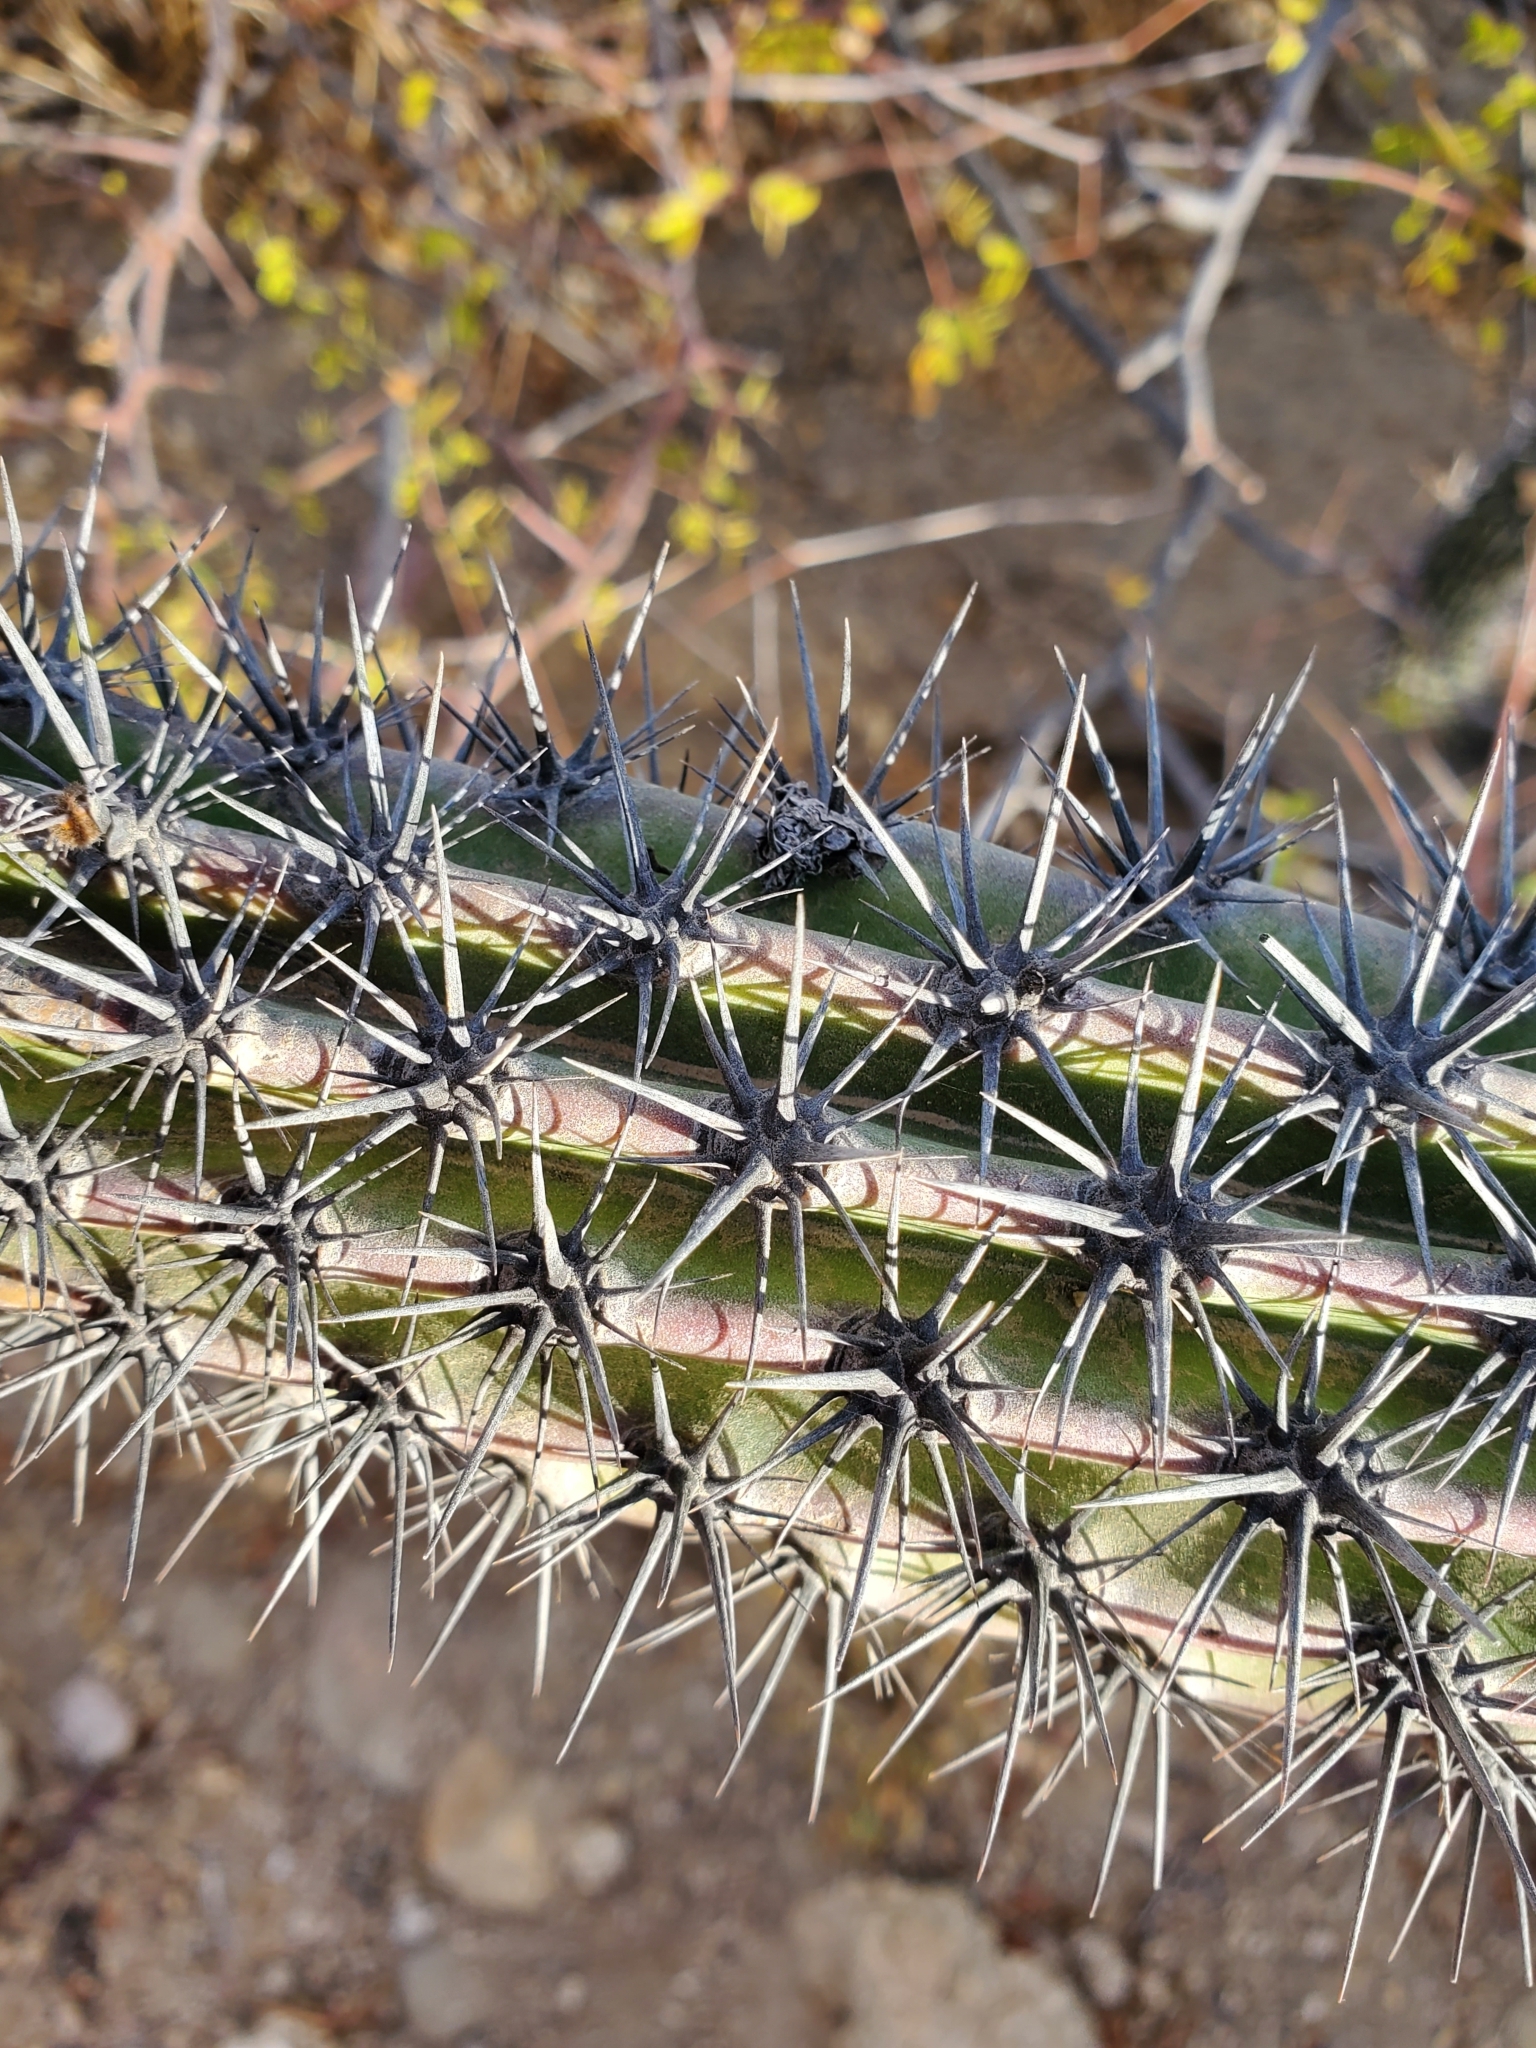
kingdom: Plantae
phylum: Tracheophyta
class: Magnoliopsida
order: Caryophyllales
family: Cactaceae
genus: Stenocereus
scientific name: Stenocereus gummosus
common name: Dagger cactus
